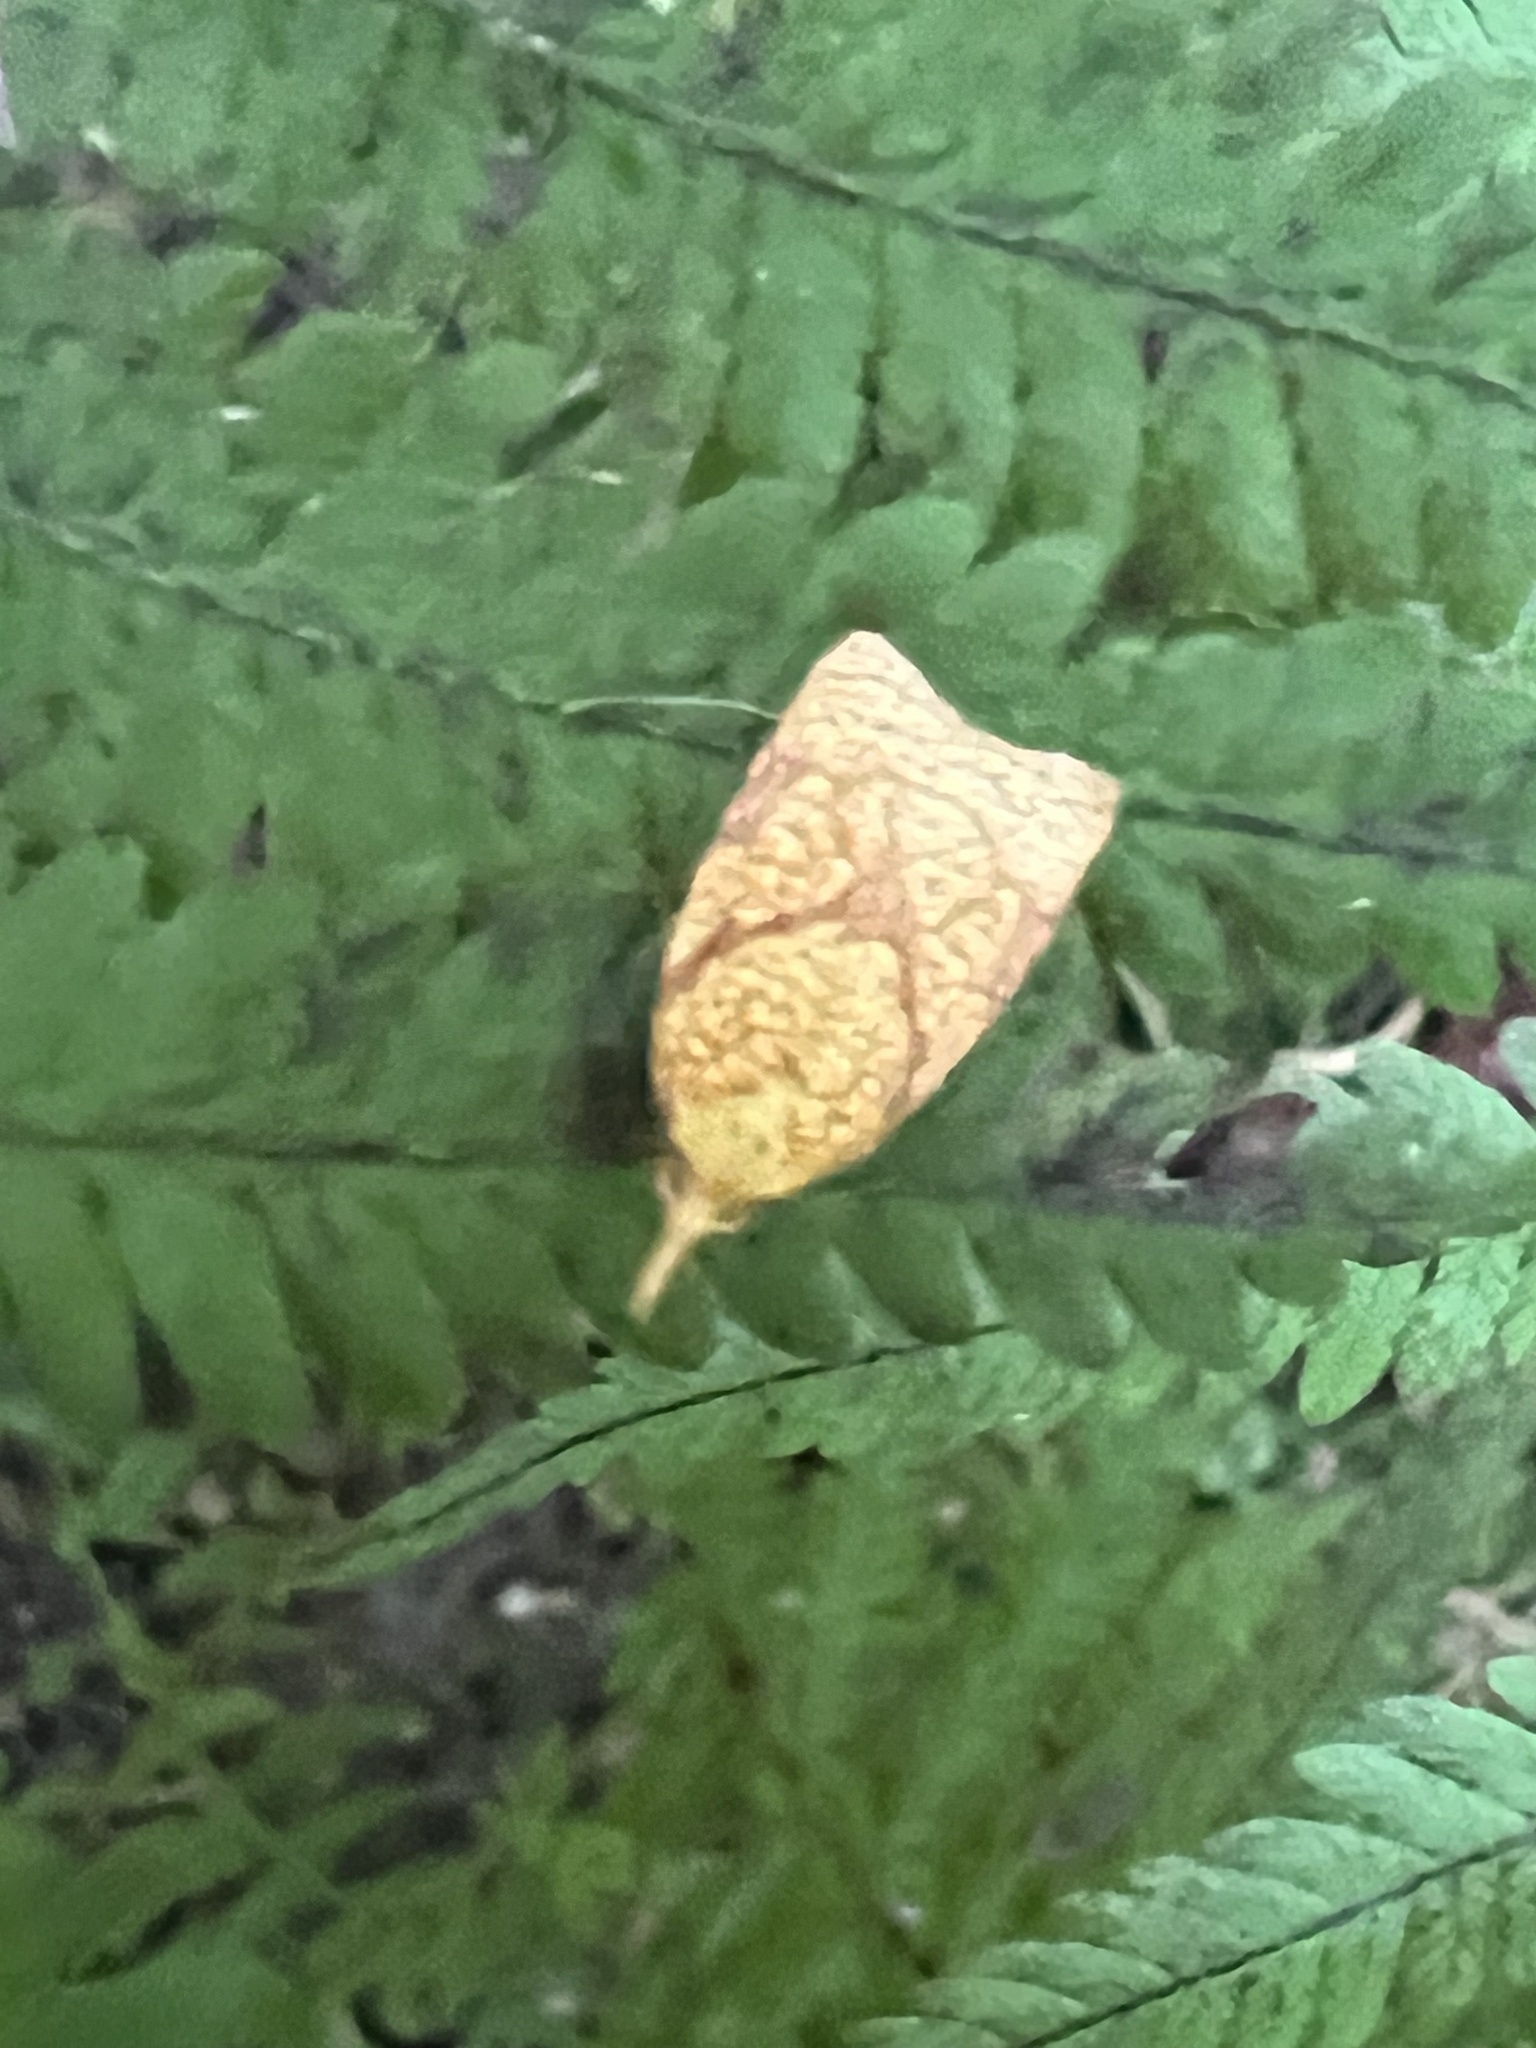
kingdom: Animalia
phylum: Arthropoda
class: Insecta
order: Lepidoptera
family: Tortricidae
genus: Cenopis
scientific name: Cenopis reticulatana
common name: Reticulated fruitworm moth
